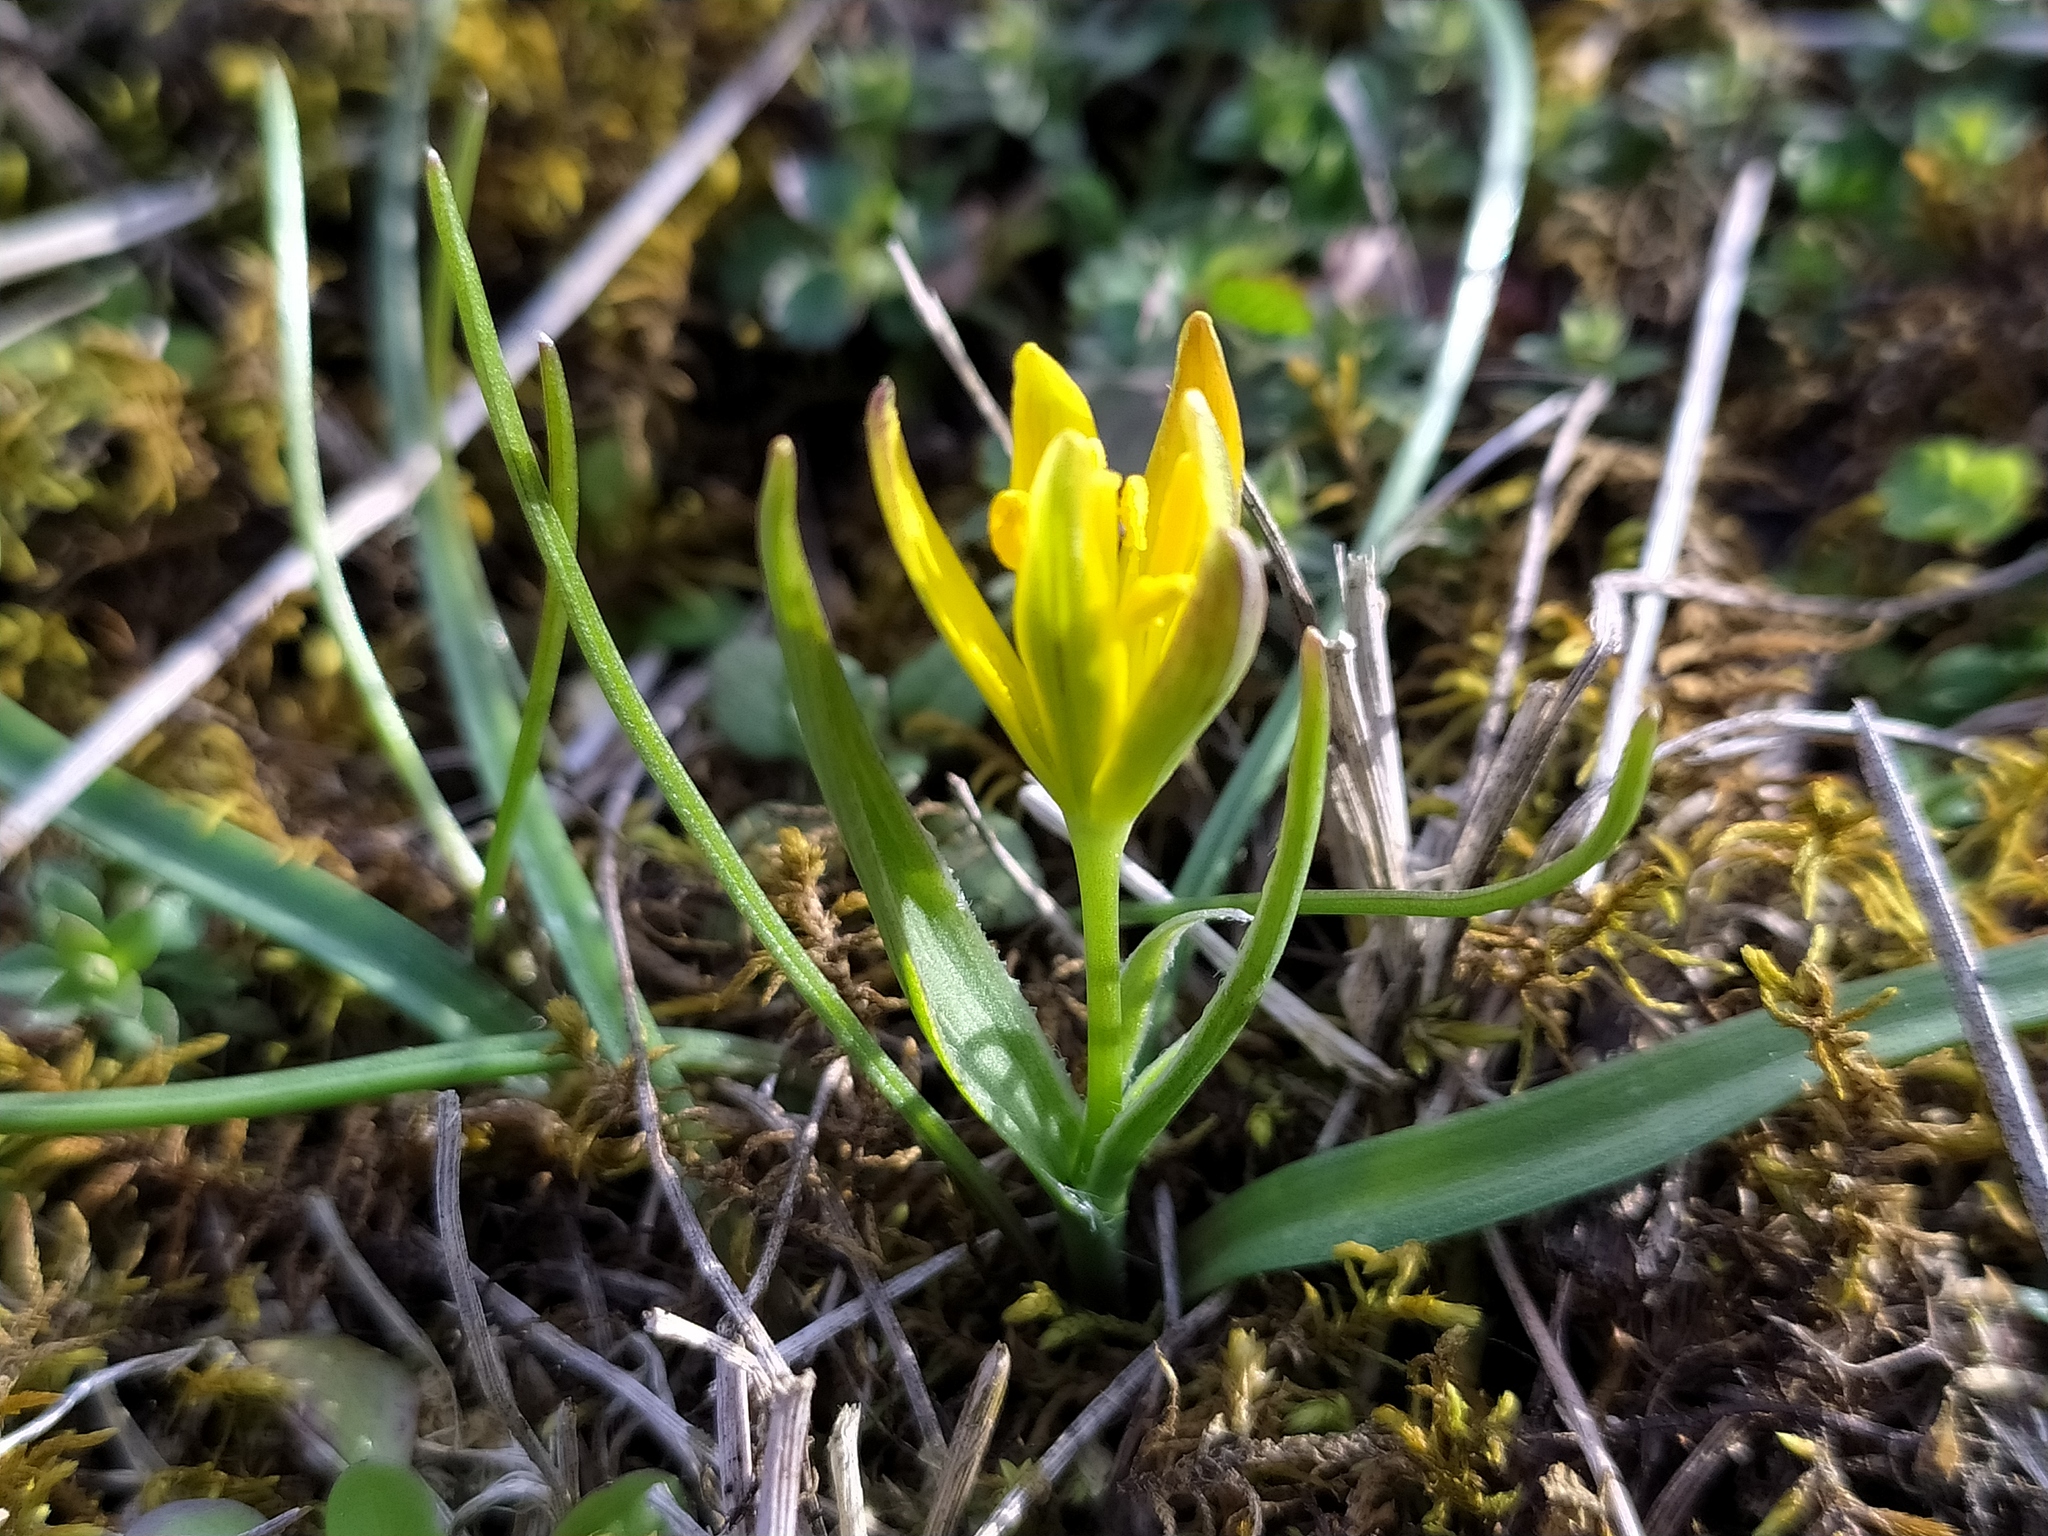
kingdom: Plantae
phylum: Tracheophyta
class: Liliopsida
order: Liliales
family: Liliaceae
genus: Gagea
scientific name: Gagea pratensis
